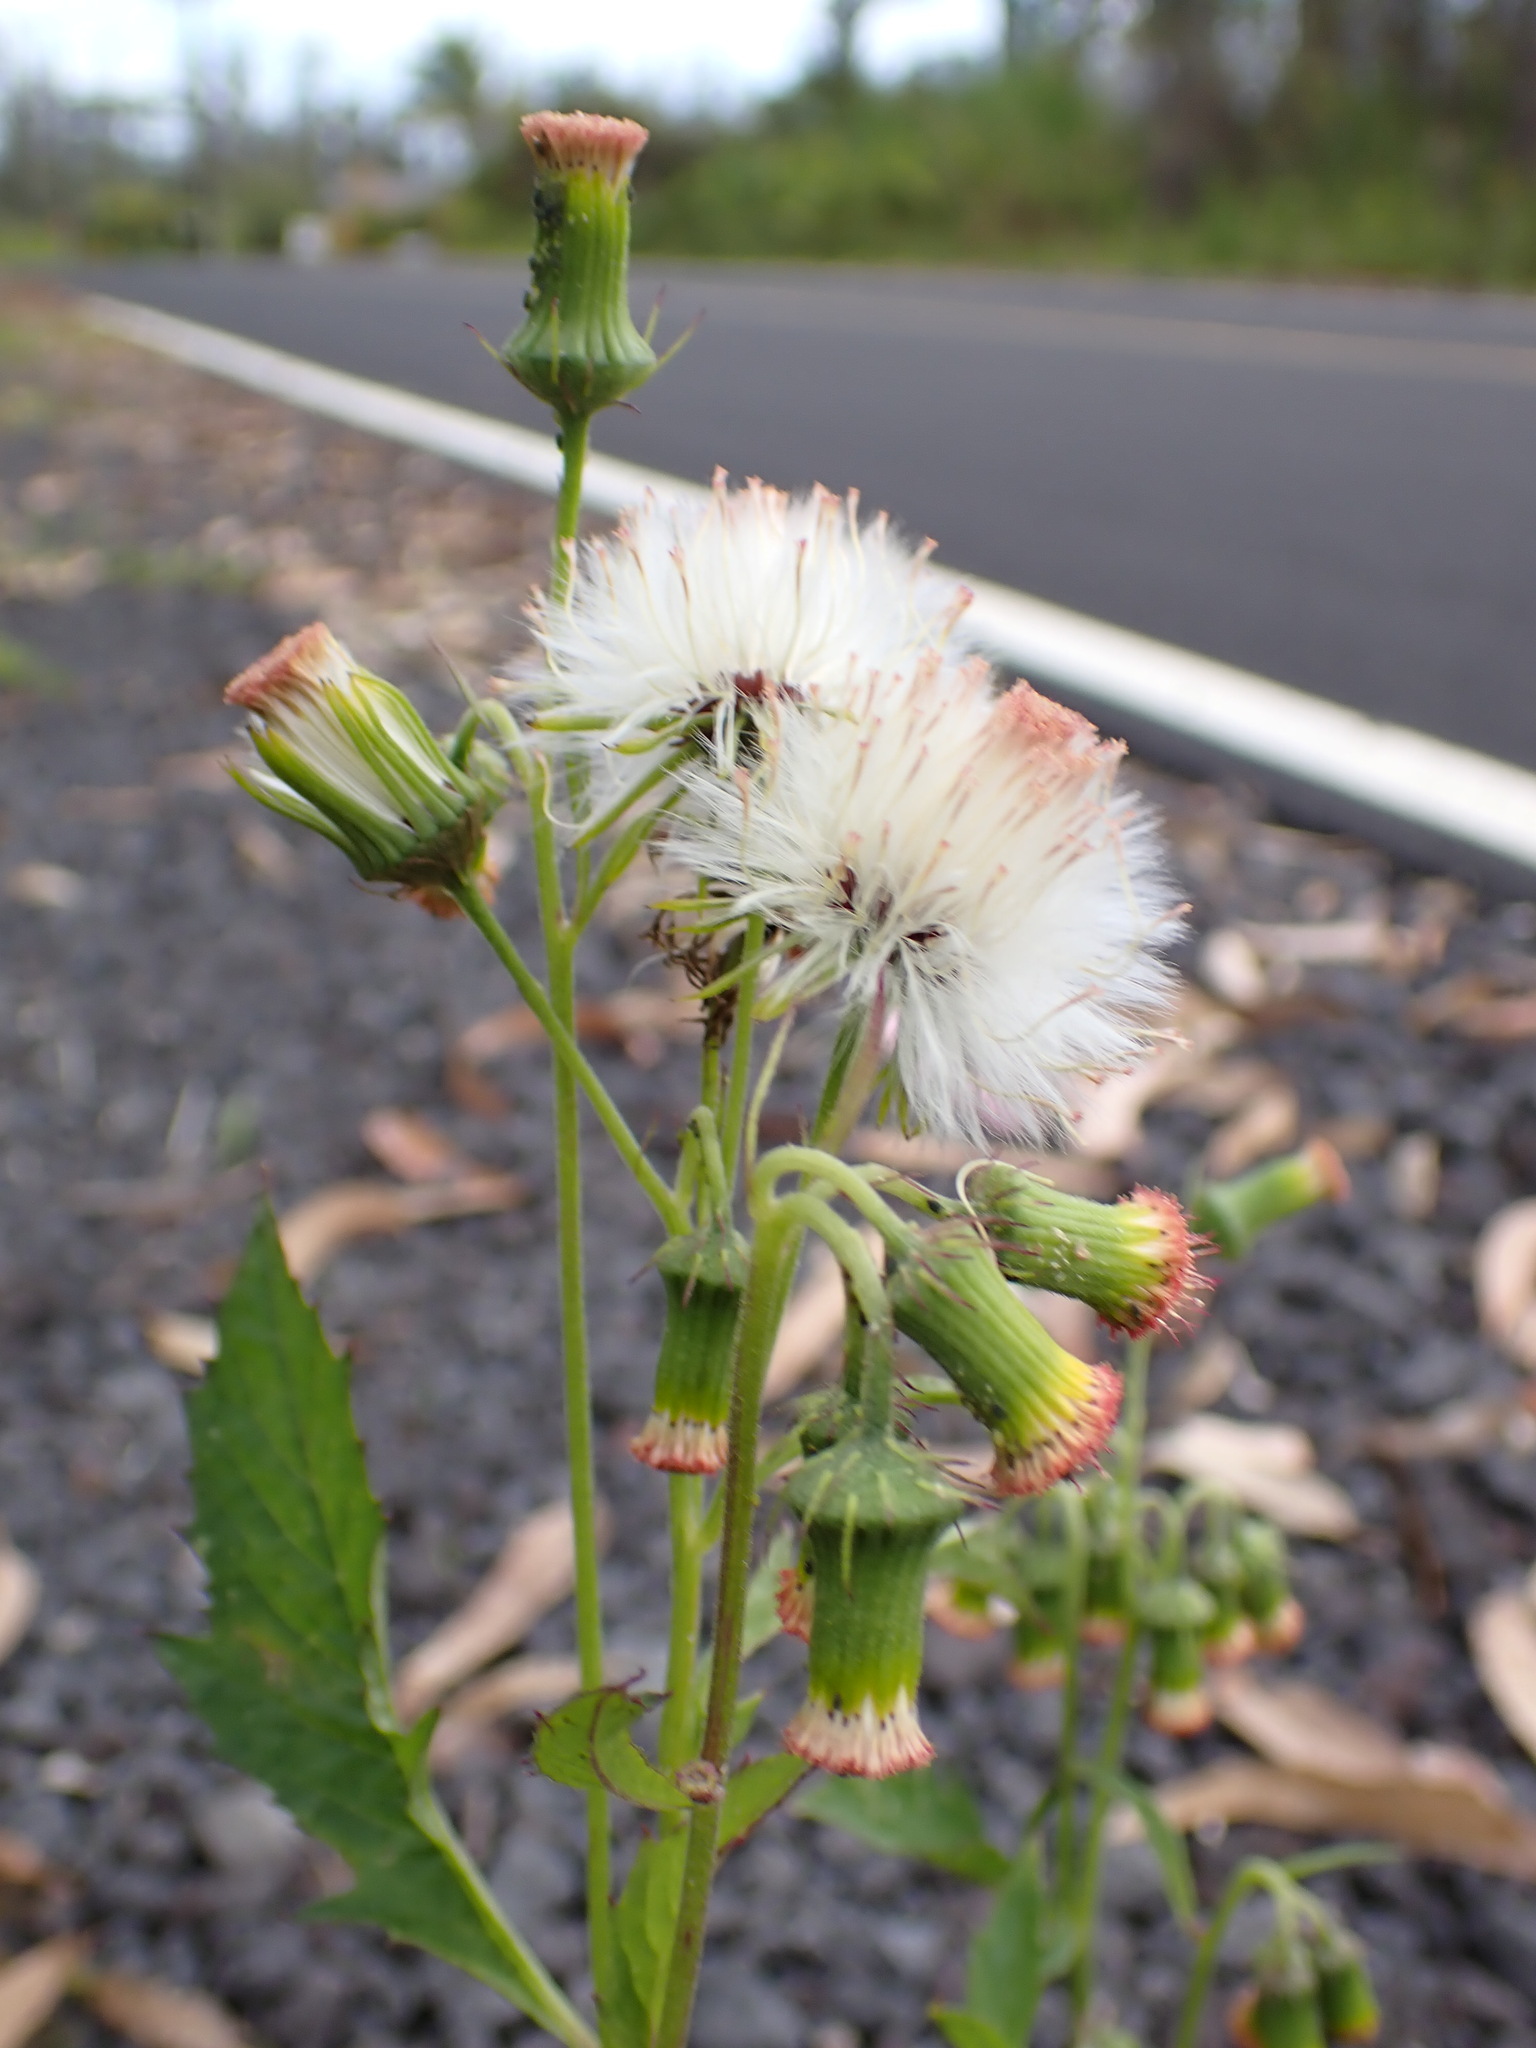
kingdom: Plantae
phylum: Tracheophyta
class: Magnoliopsida
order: Asterales
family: Asteraceae
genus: Crassocephalum
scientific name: Crassocephalum crepidioides
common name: Redflower ragleaf
